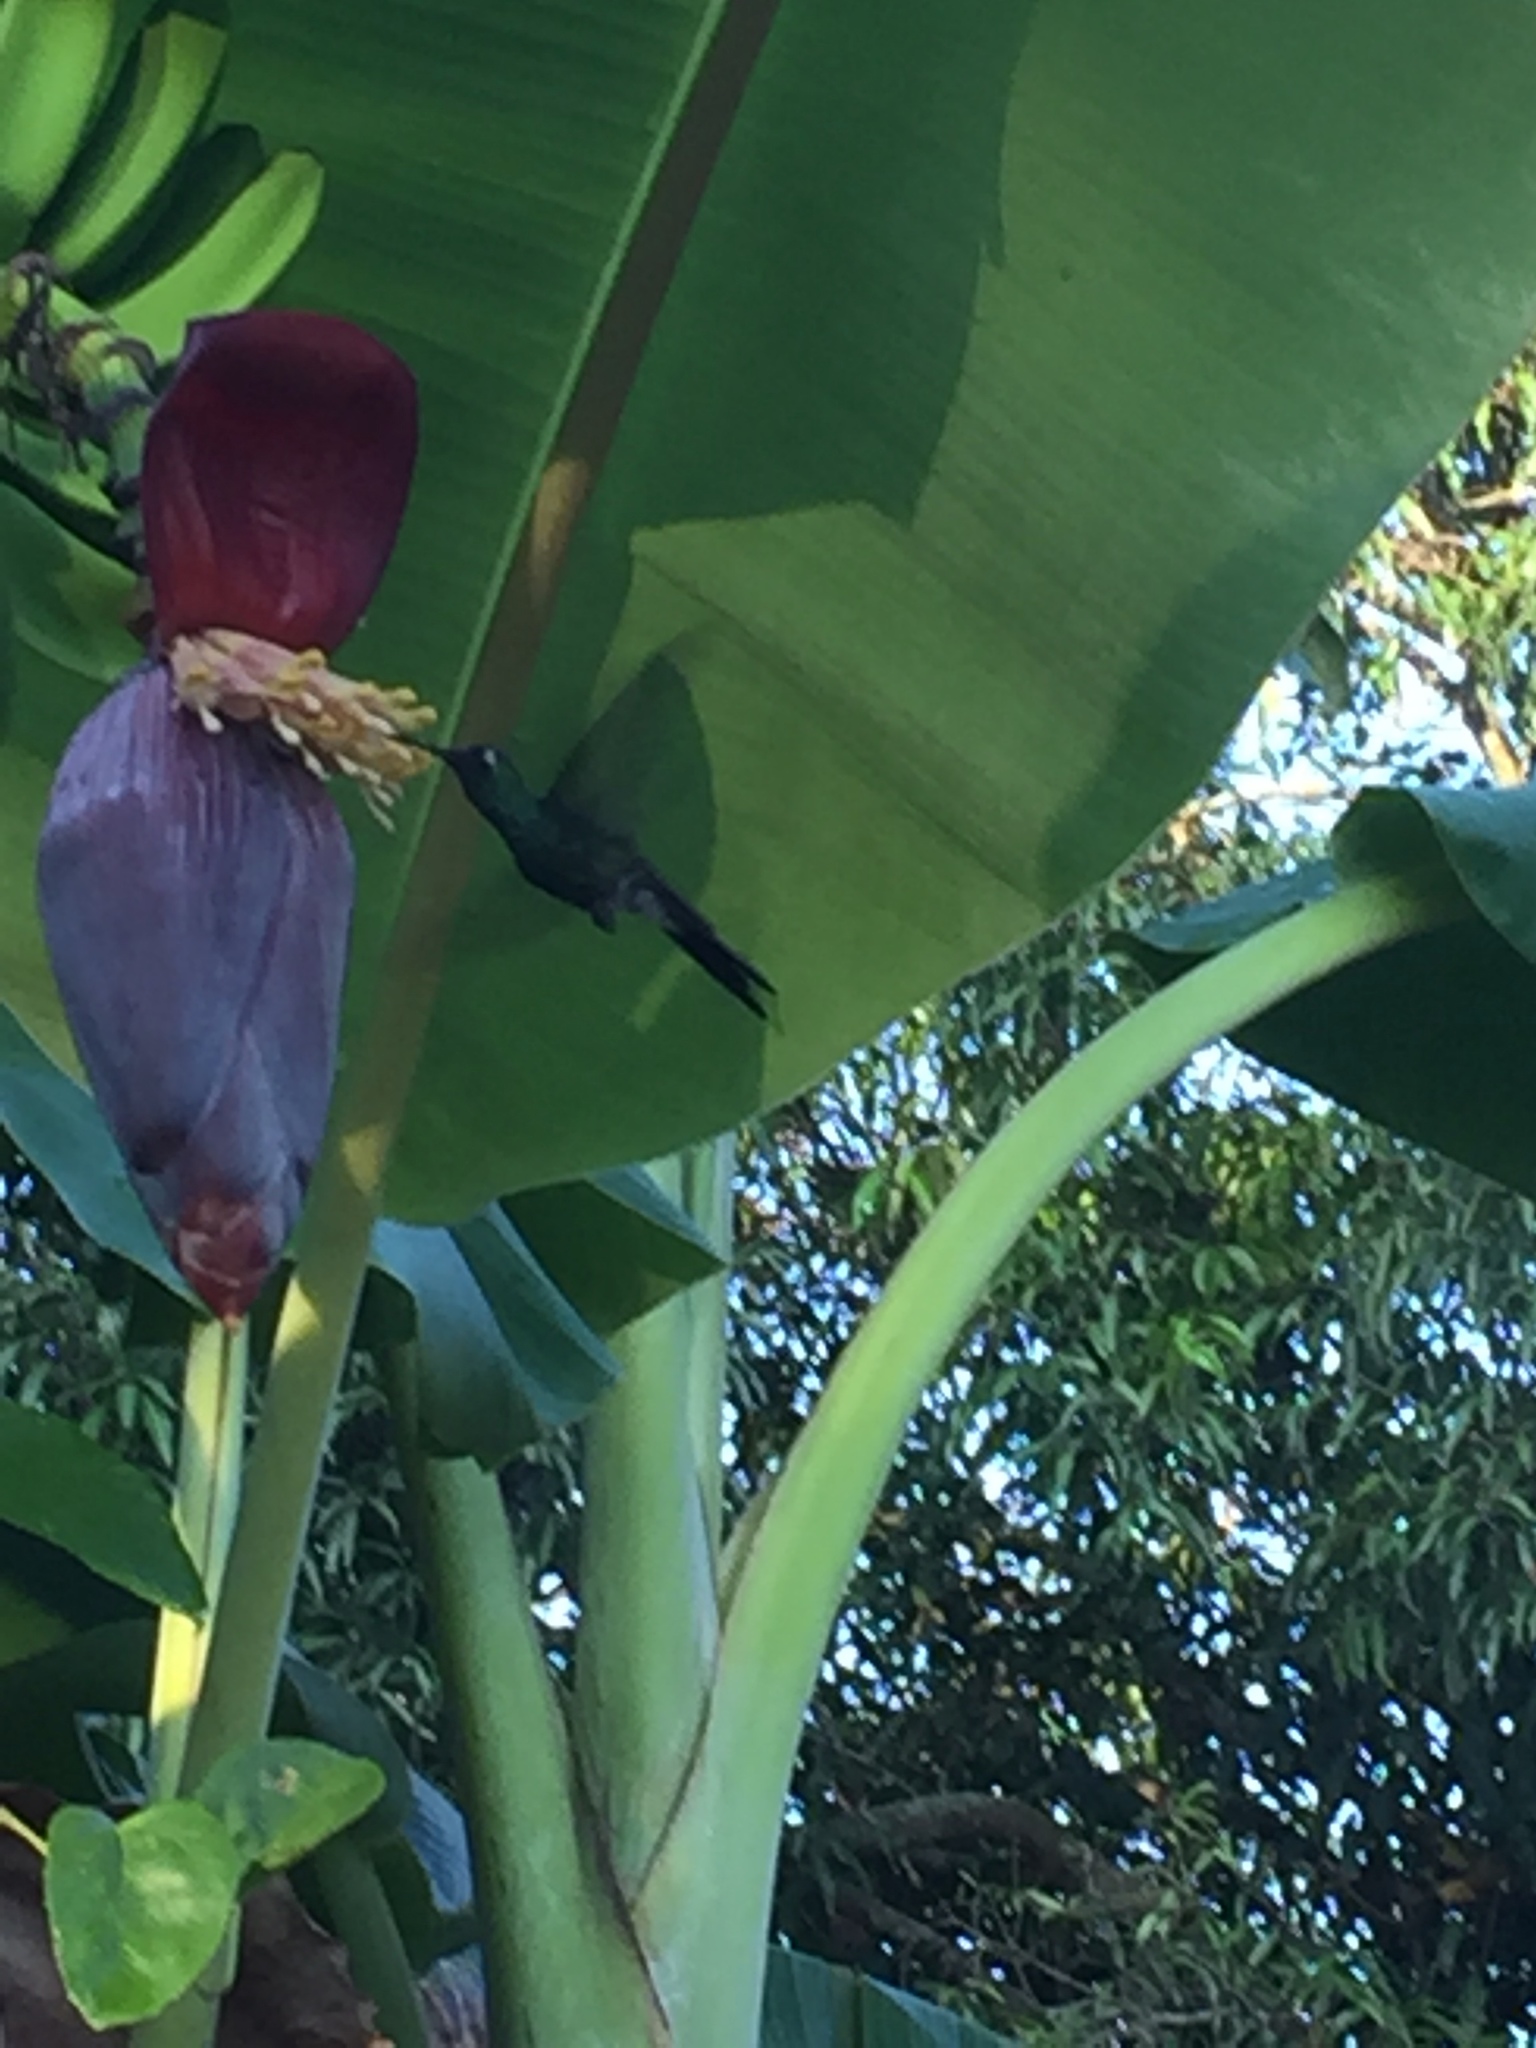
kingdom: Animalia
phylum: Chordata
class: Aves
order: Apodiformes
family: Trochilidae
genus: Riccordia
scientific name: Riccordia ricordii
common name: Cuban emerald
